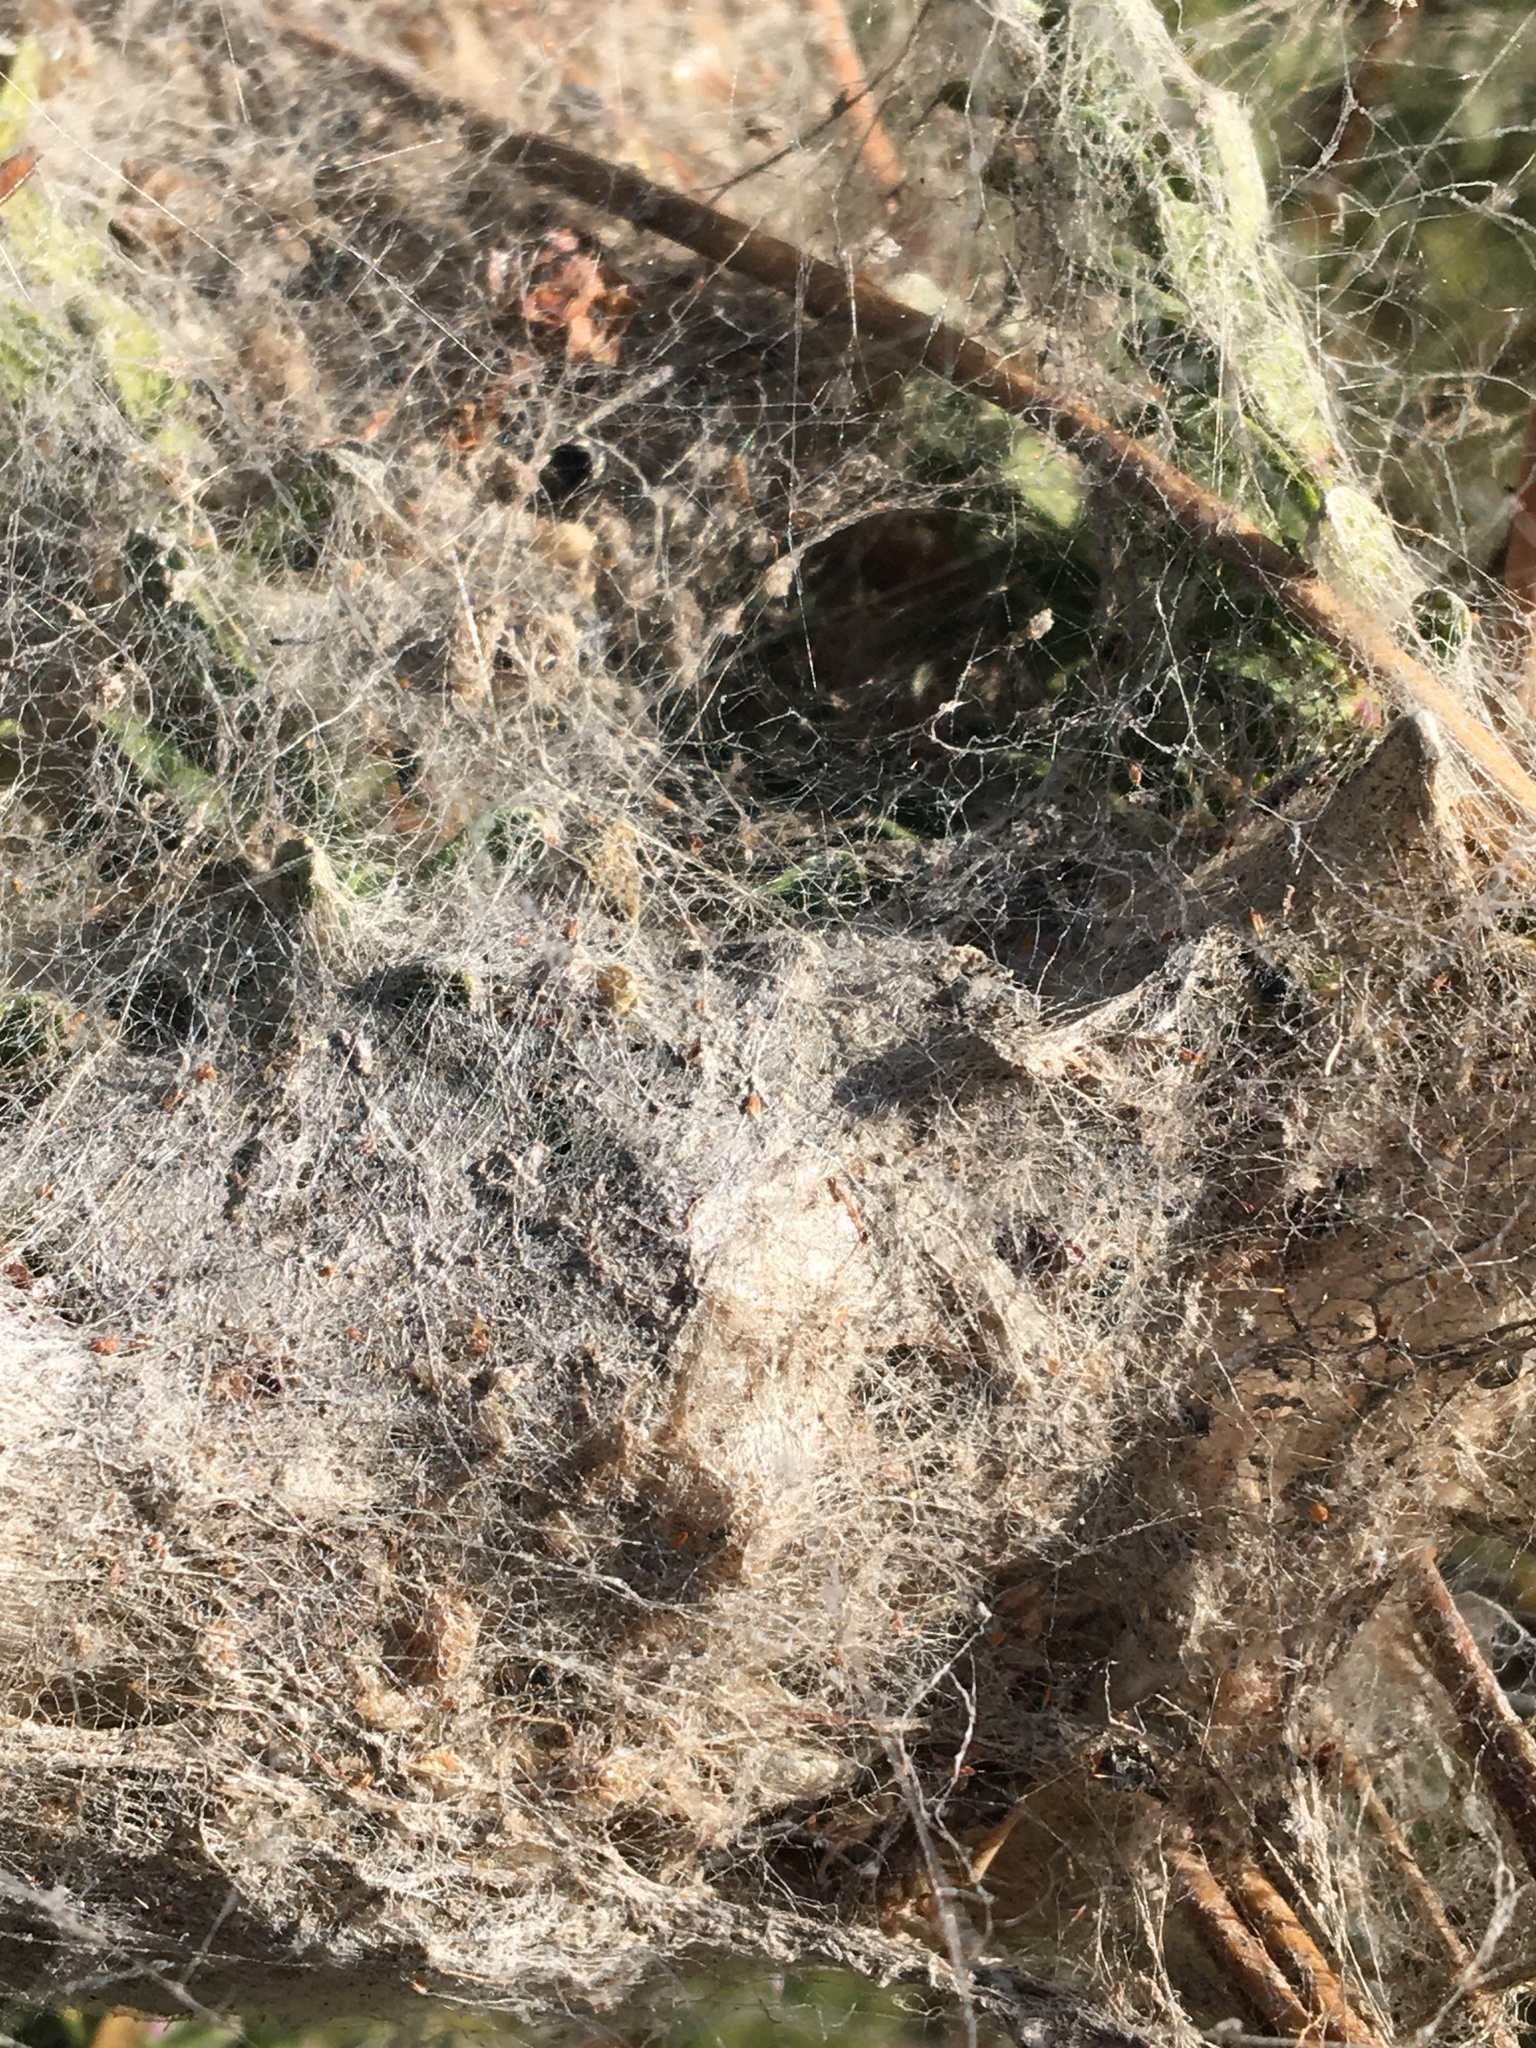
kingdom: Animalia
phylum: Arthropoda
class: Arachnida
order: Araneae
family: Eresidae
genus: Stegodyphus
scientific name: Stegodyphus dumicola
